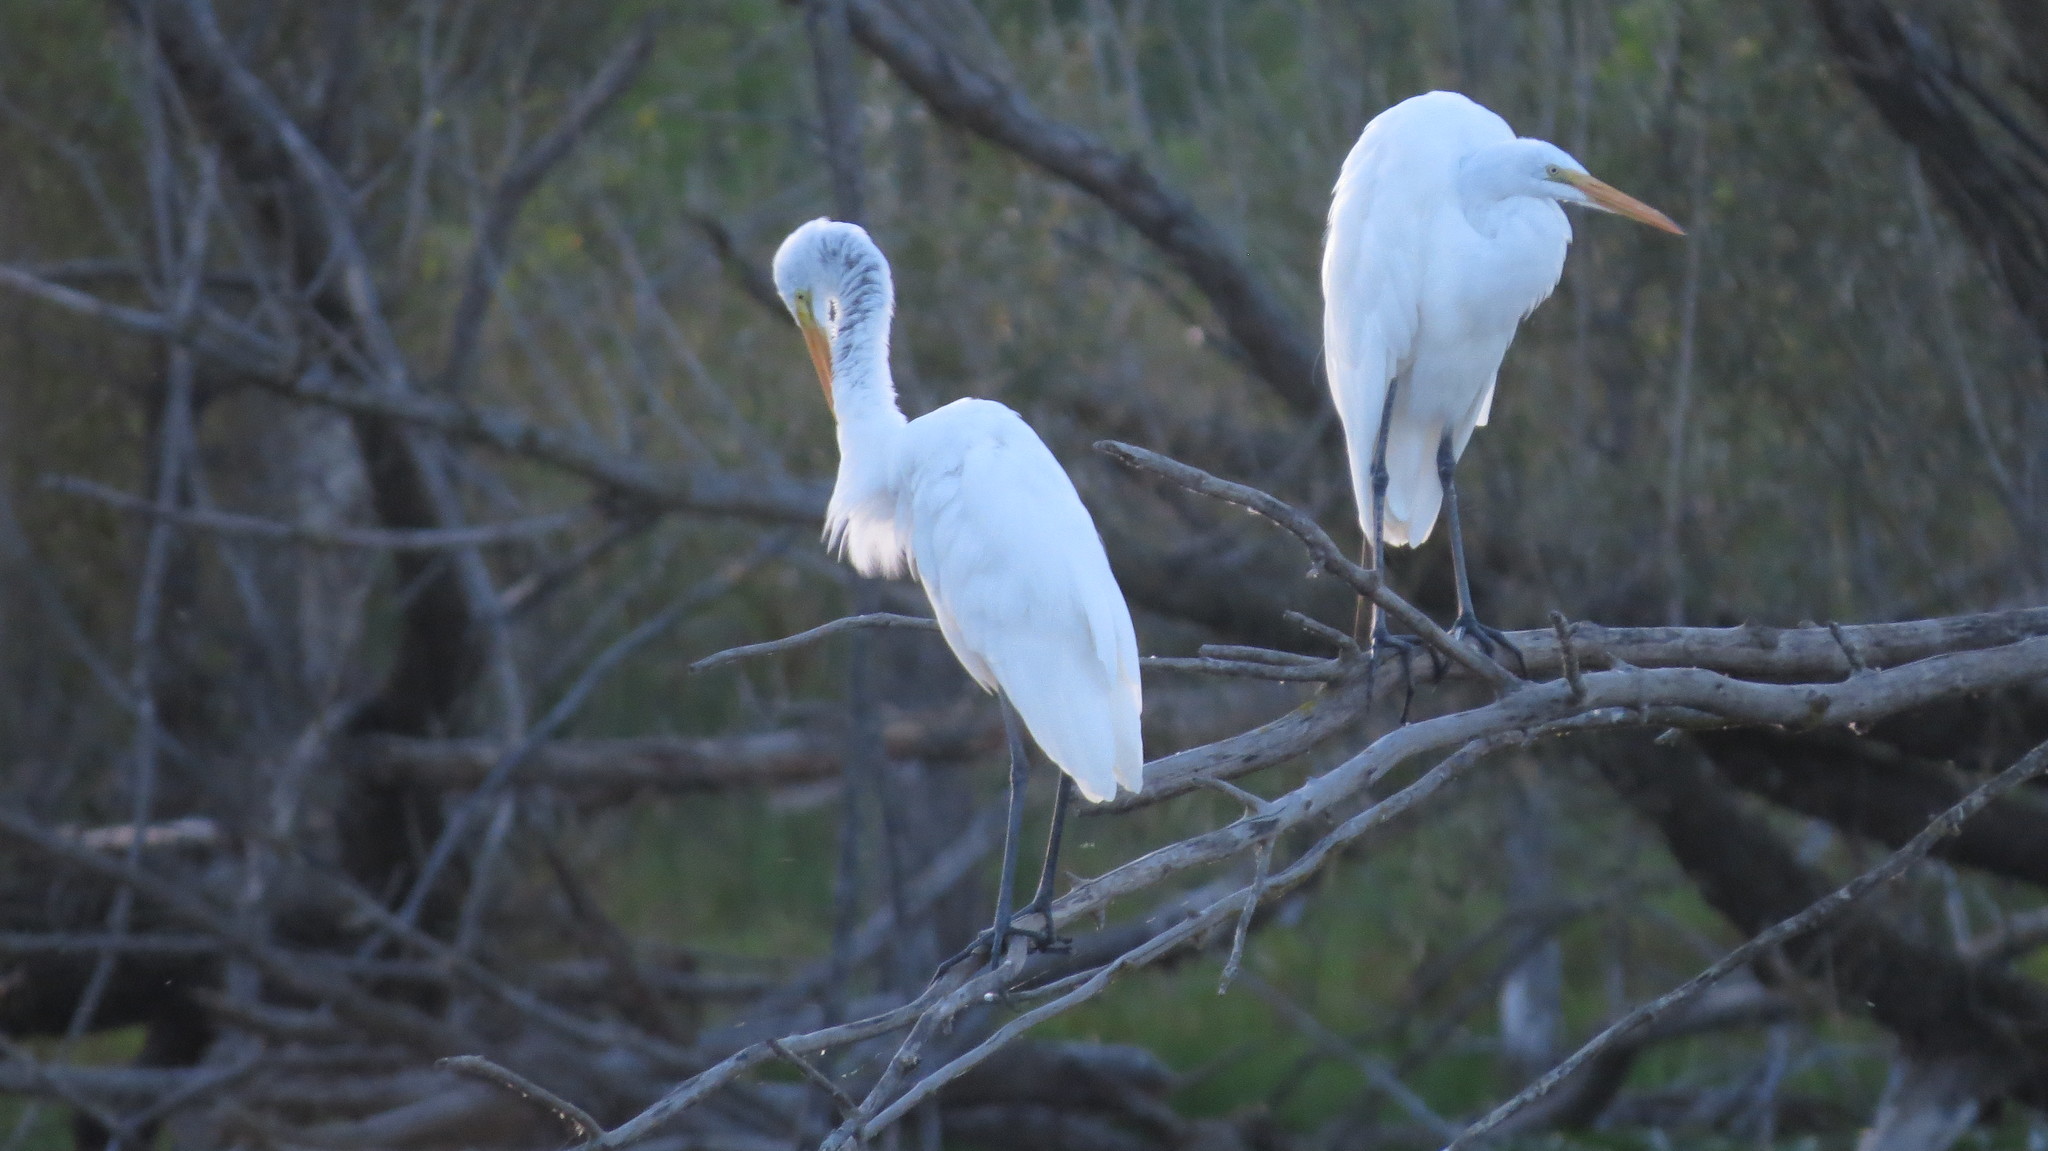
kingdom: Animalia
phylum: Chordata
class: Aves
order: Pelecaniformes
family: Ardeidae
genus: Ardea
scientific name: Ardea alba
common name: Great egret
